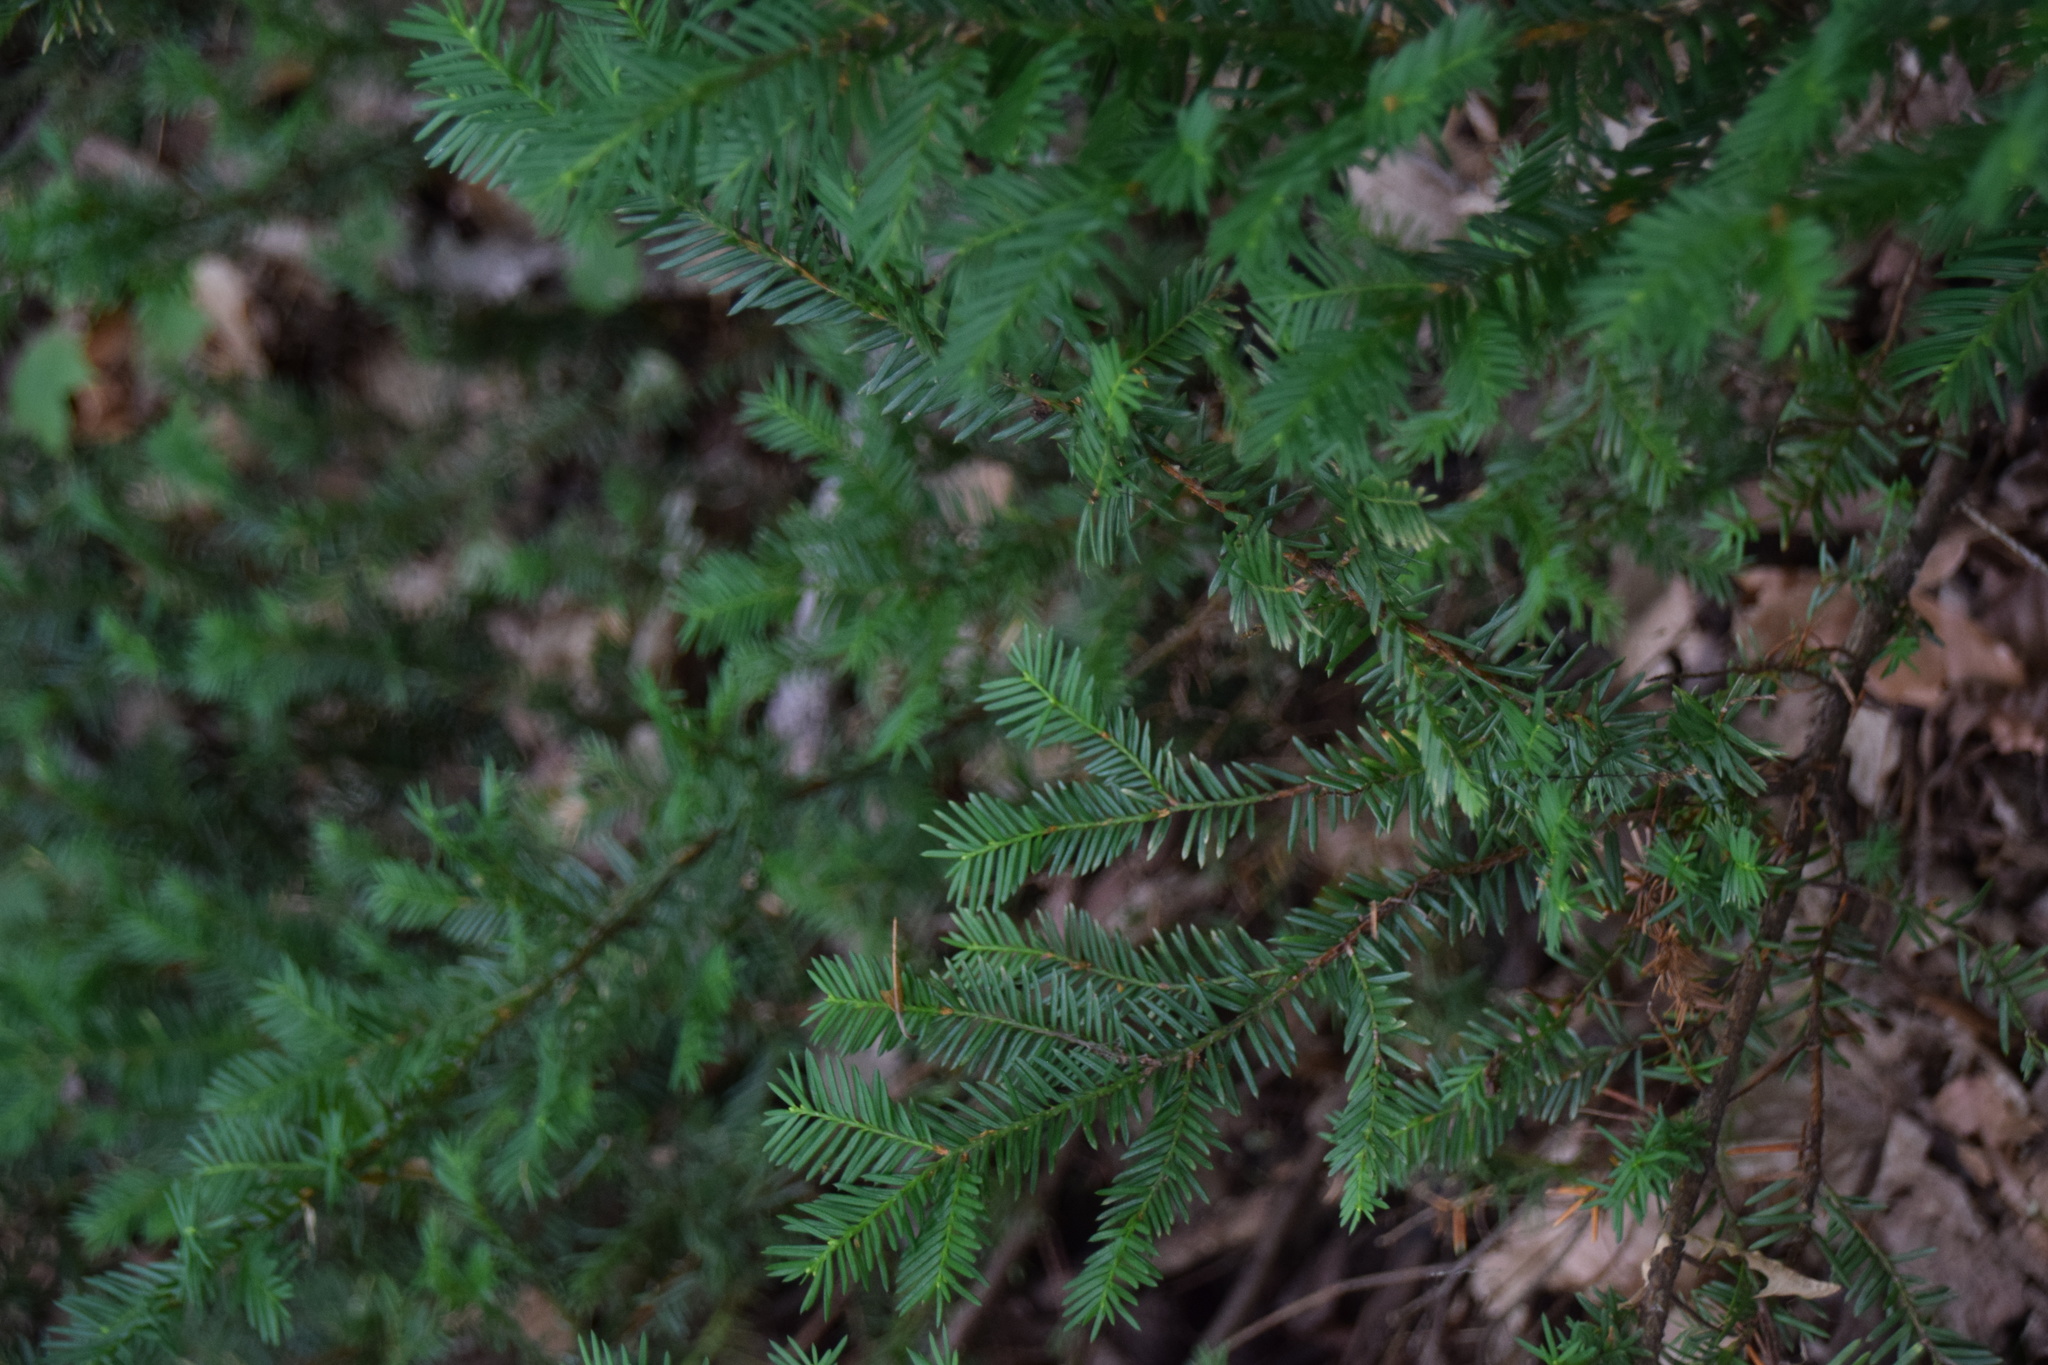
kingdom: Plantae
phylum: Tracheophyta
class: Pinopsida
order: Pinales
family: Taxaceae
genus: Taxus
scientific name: Taxus canadensis
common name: American yew
